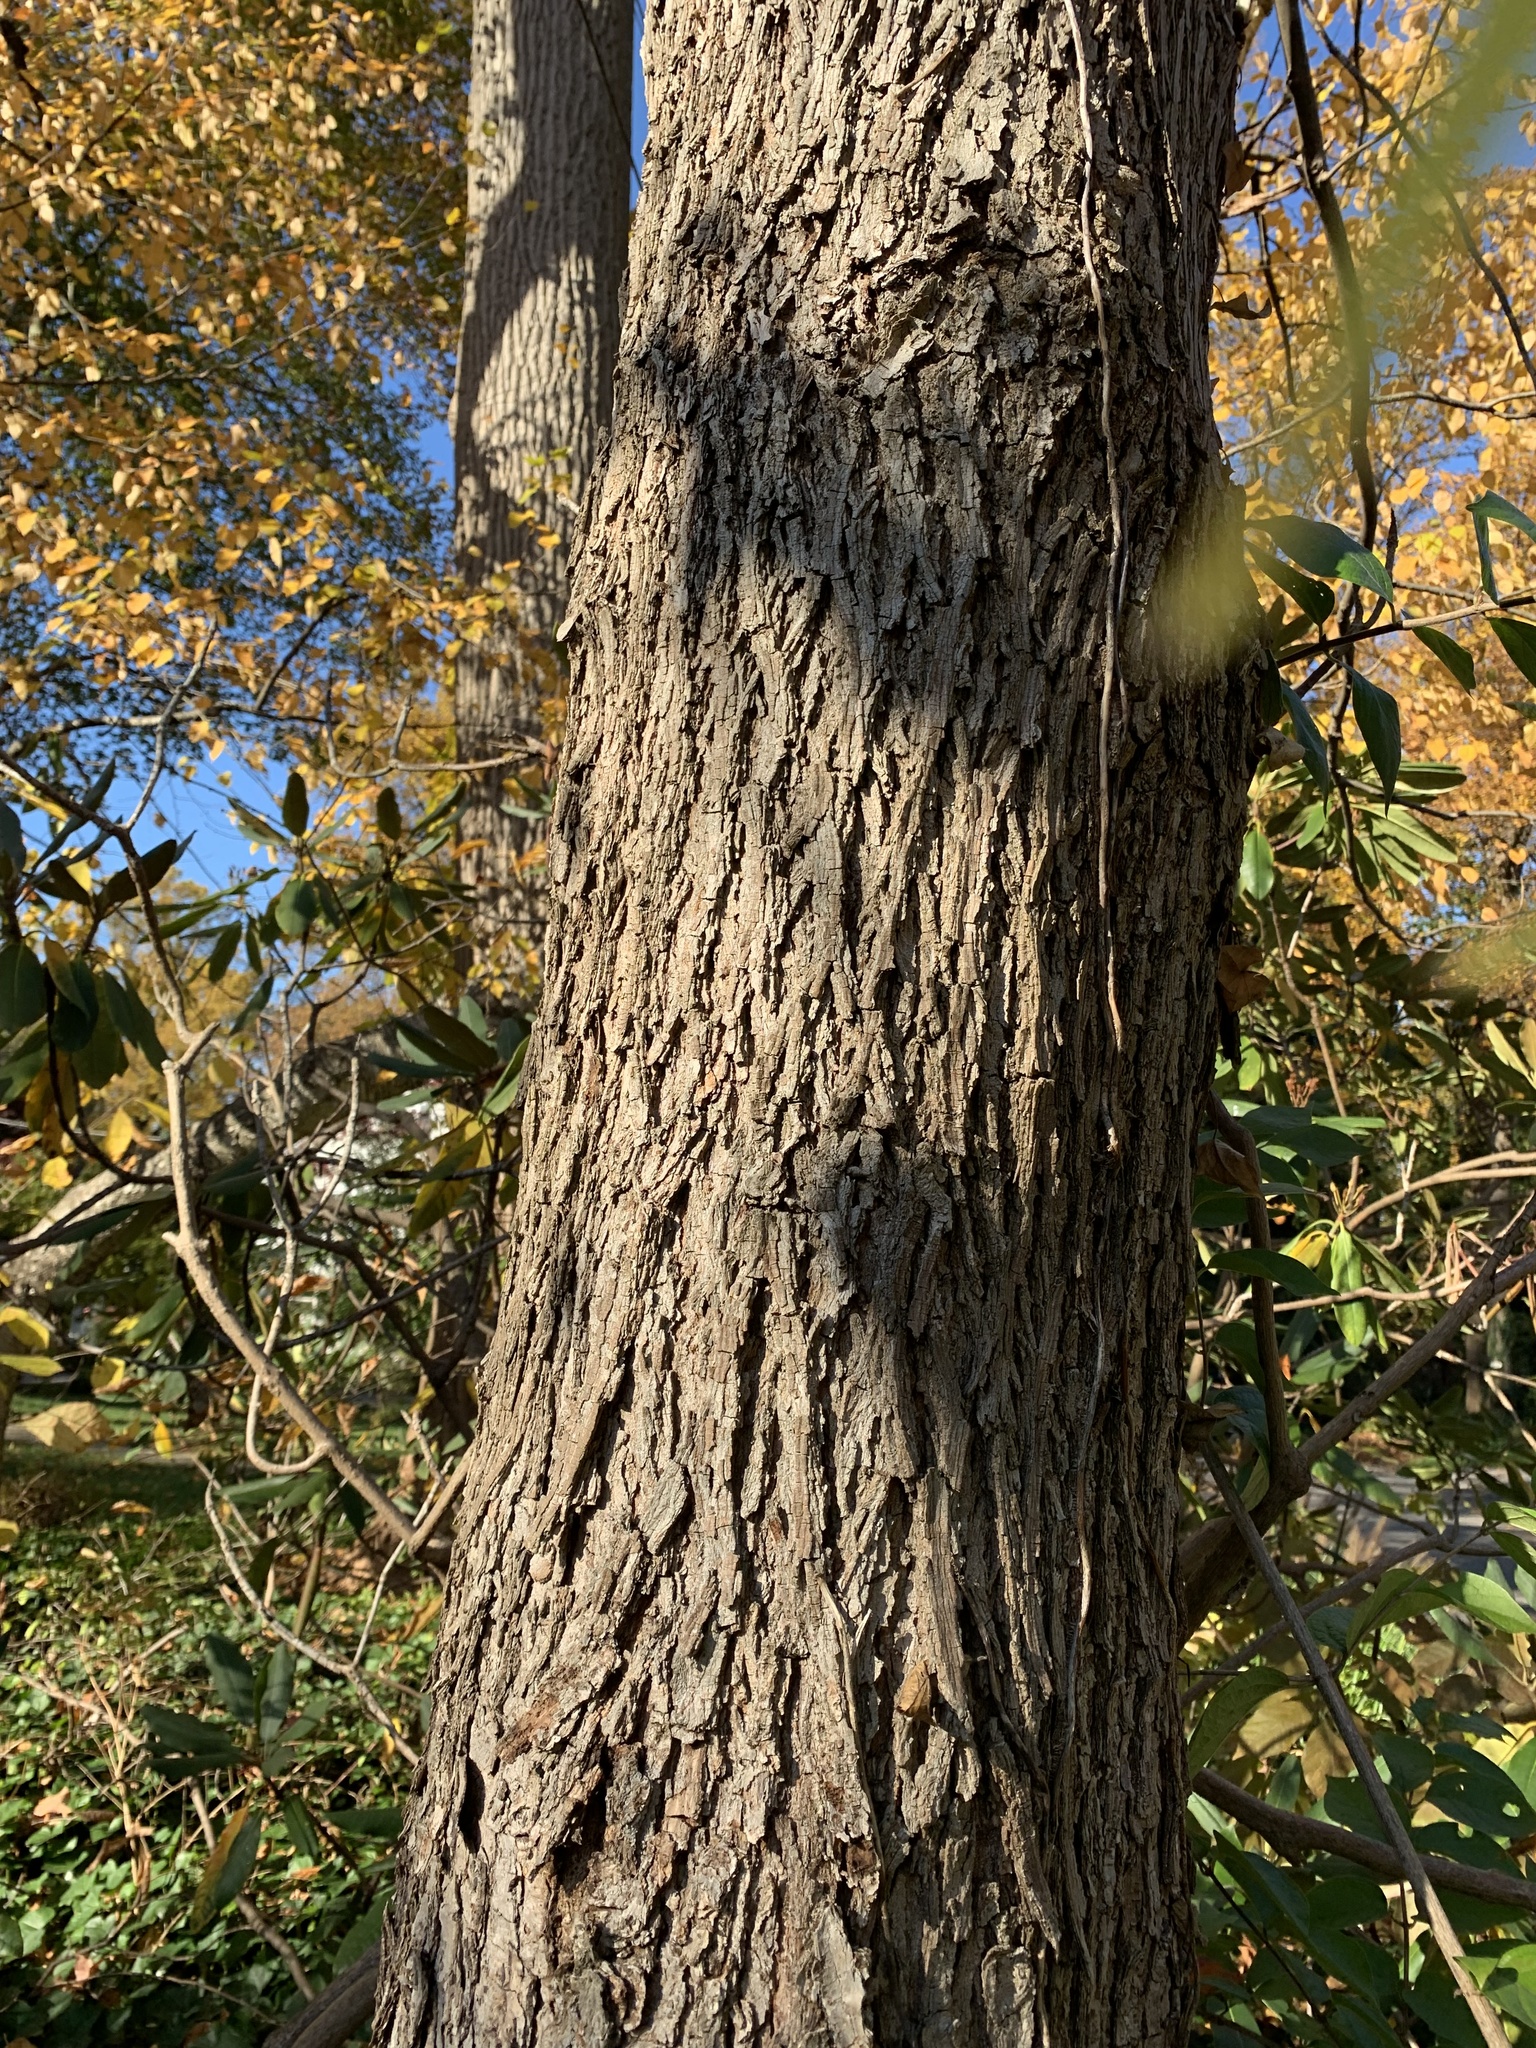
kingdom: Plantae
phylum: Tracheophyta
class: Magnoliopsida
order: Fagales
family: Juglandaceae
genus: Carya
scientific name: Carya cordiformis
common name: Bitternut hickory
